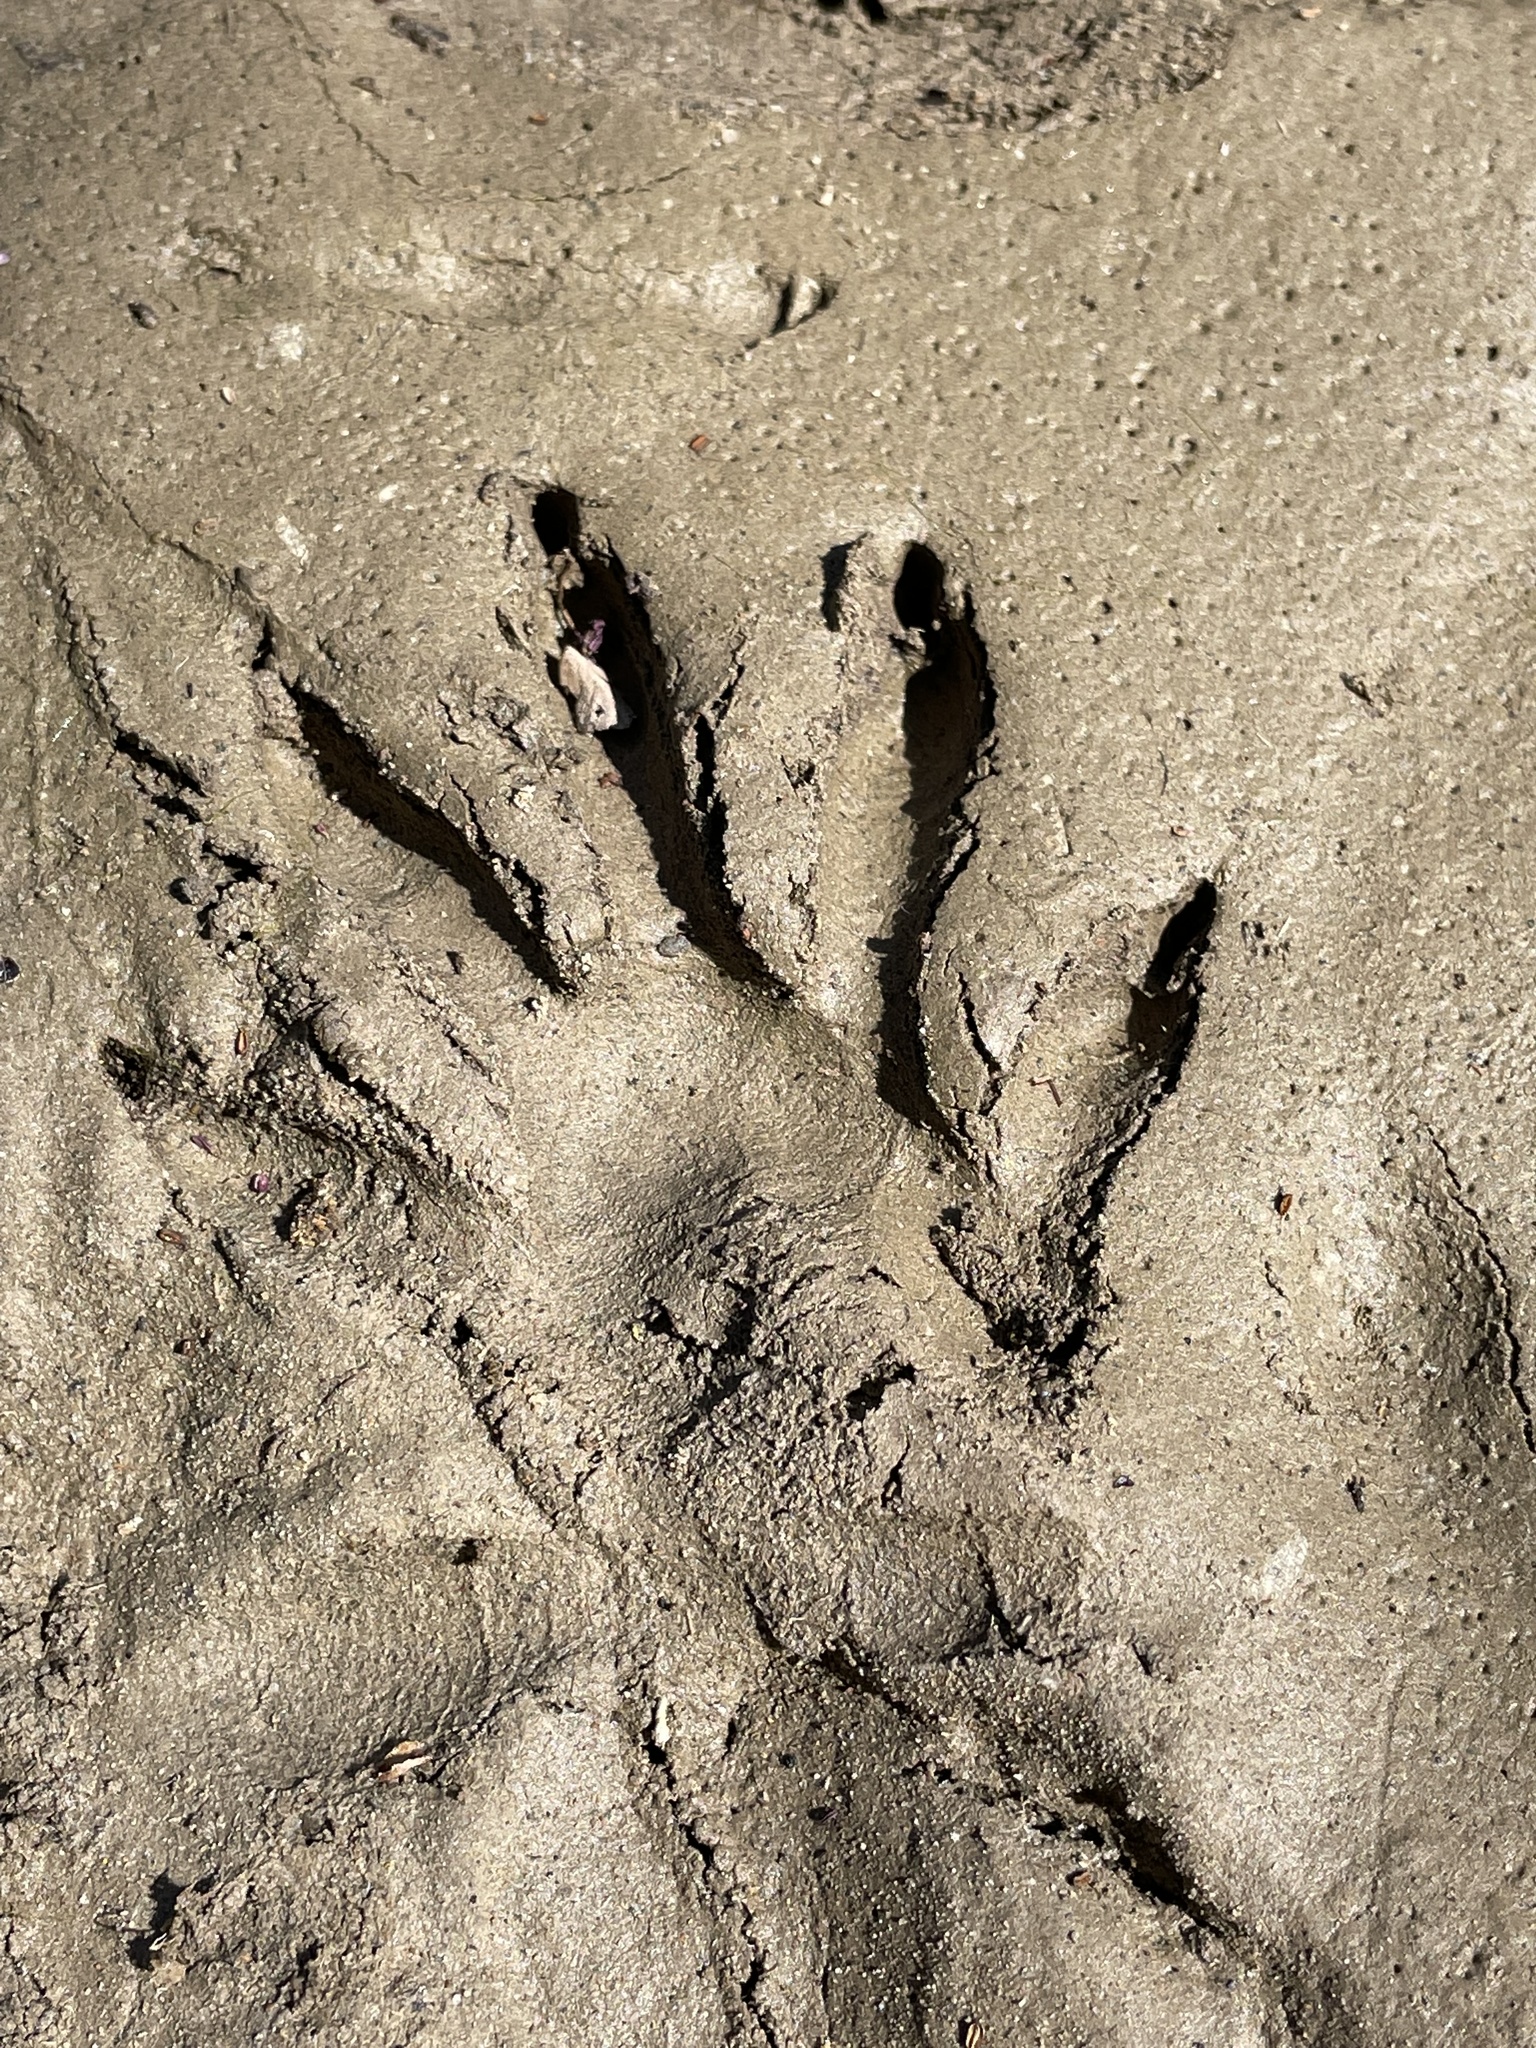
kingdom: Animalia
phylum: Chordata
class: Mammalia
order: Carnivora
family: Procyonidae
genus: Procyon
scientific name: Procyon lotor
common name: Raccoon
